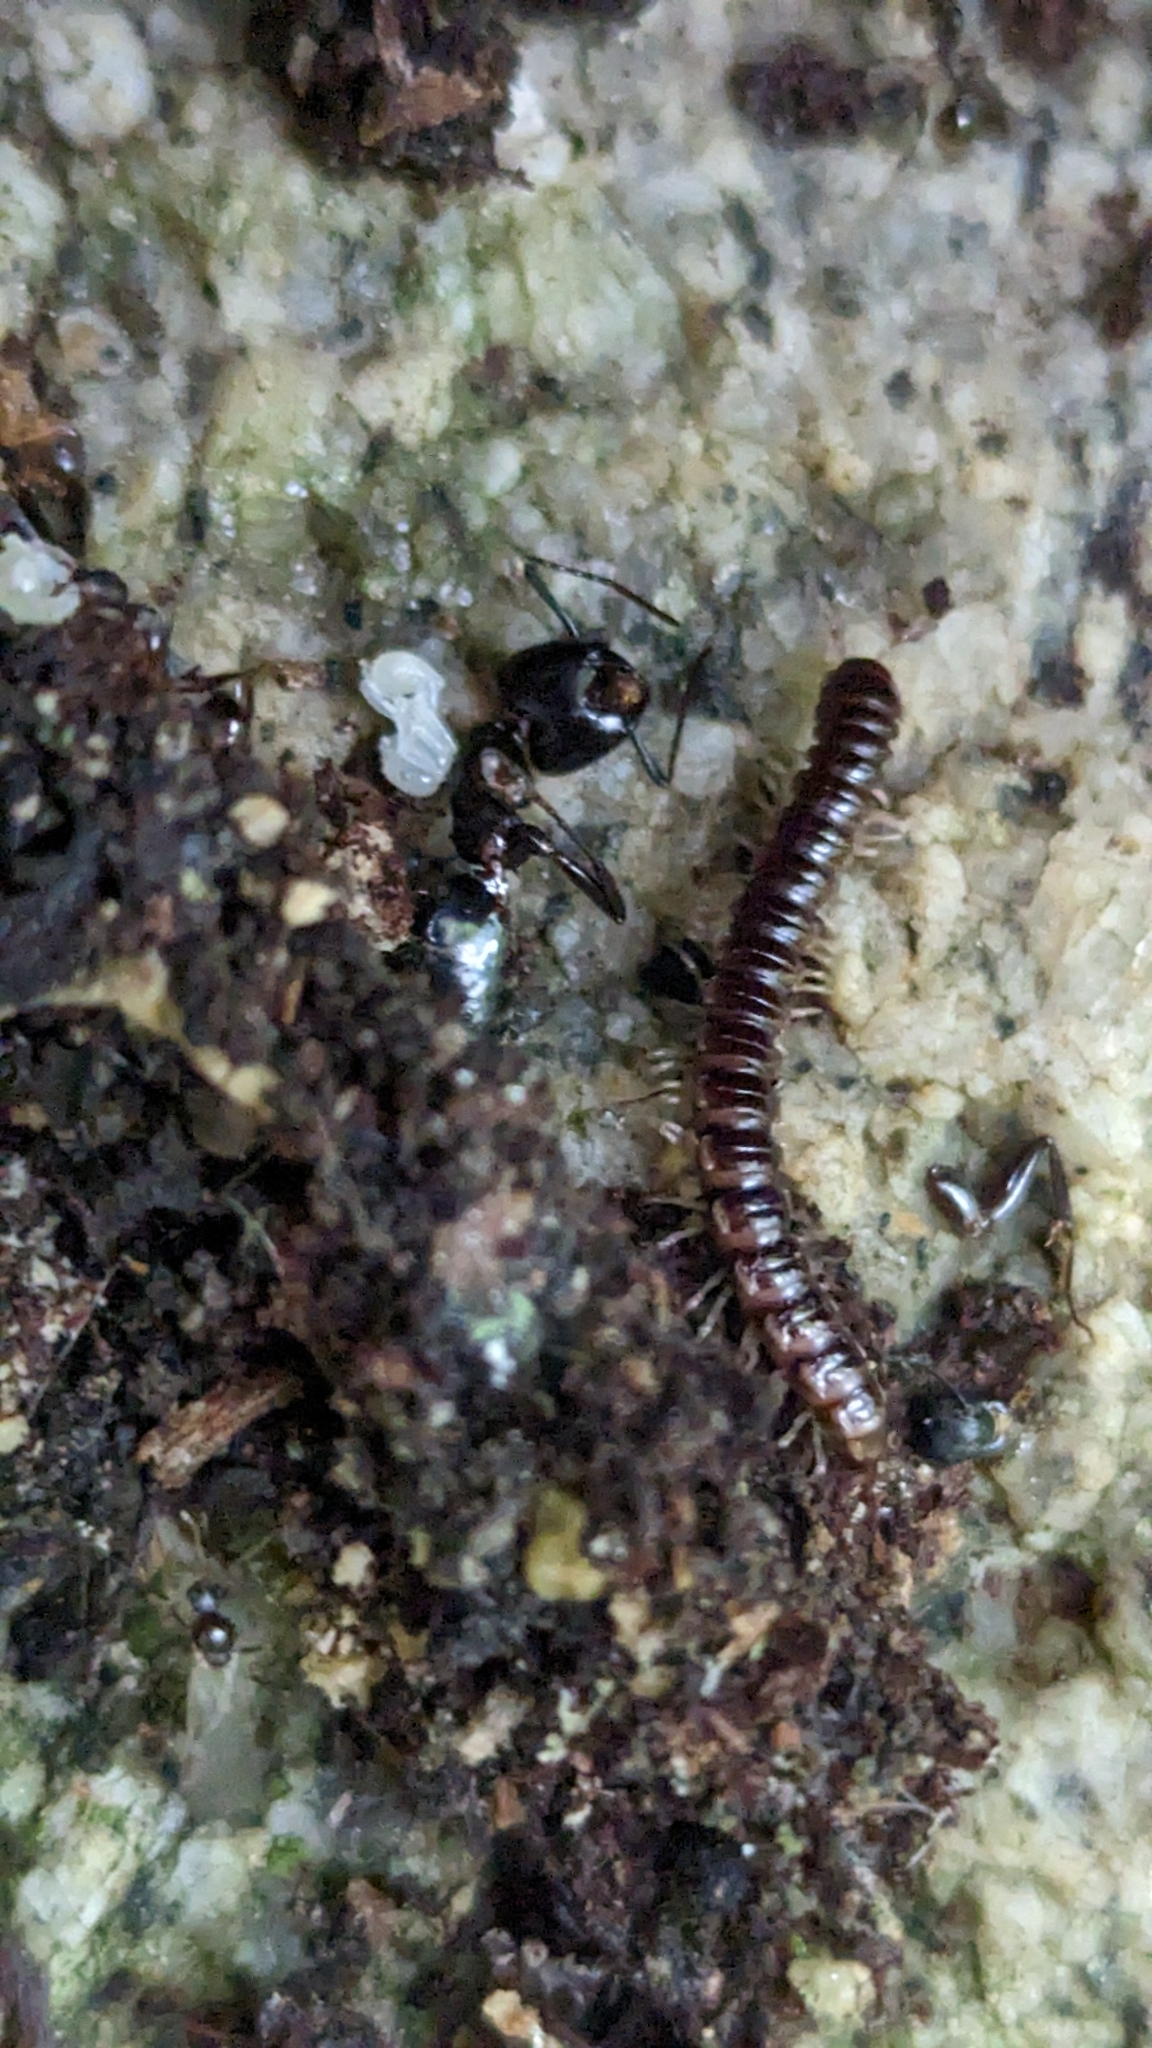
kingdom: Animalia
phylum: Arthropoda
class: Insecta
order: Hymenoptera
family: Formicidae
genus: Camponotus
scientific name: Camponotus pennsylvanicus
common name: Black carpenter ant
